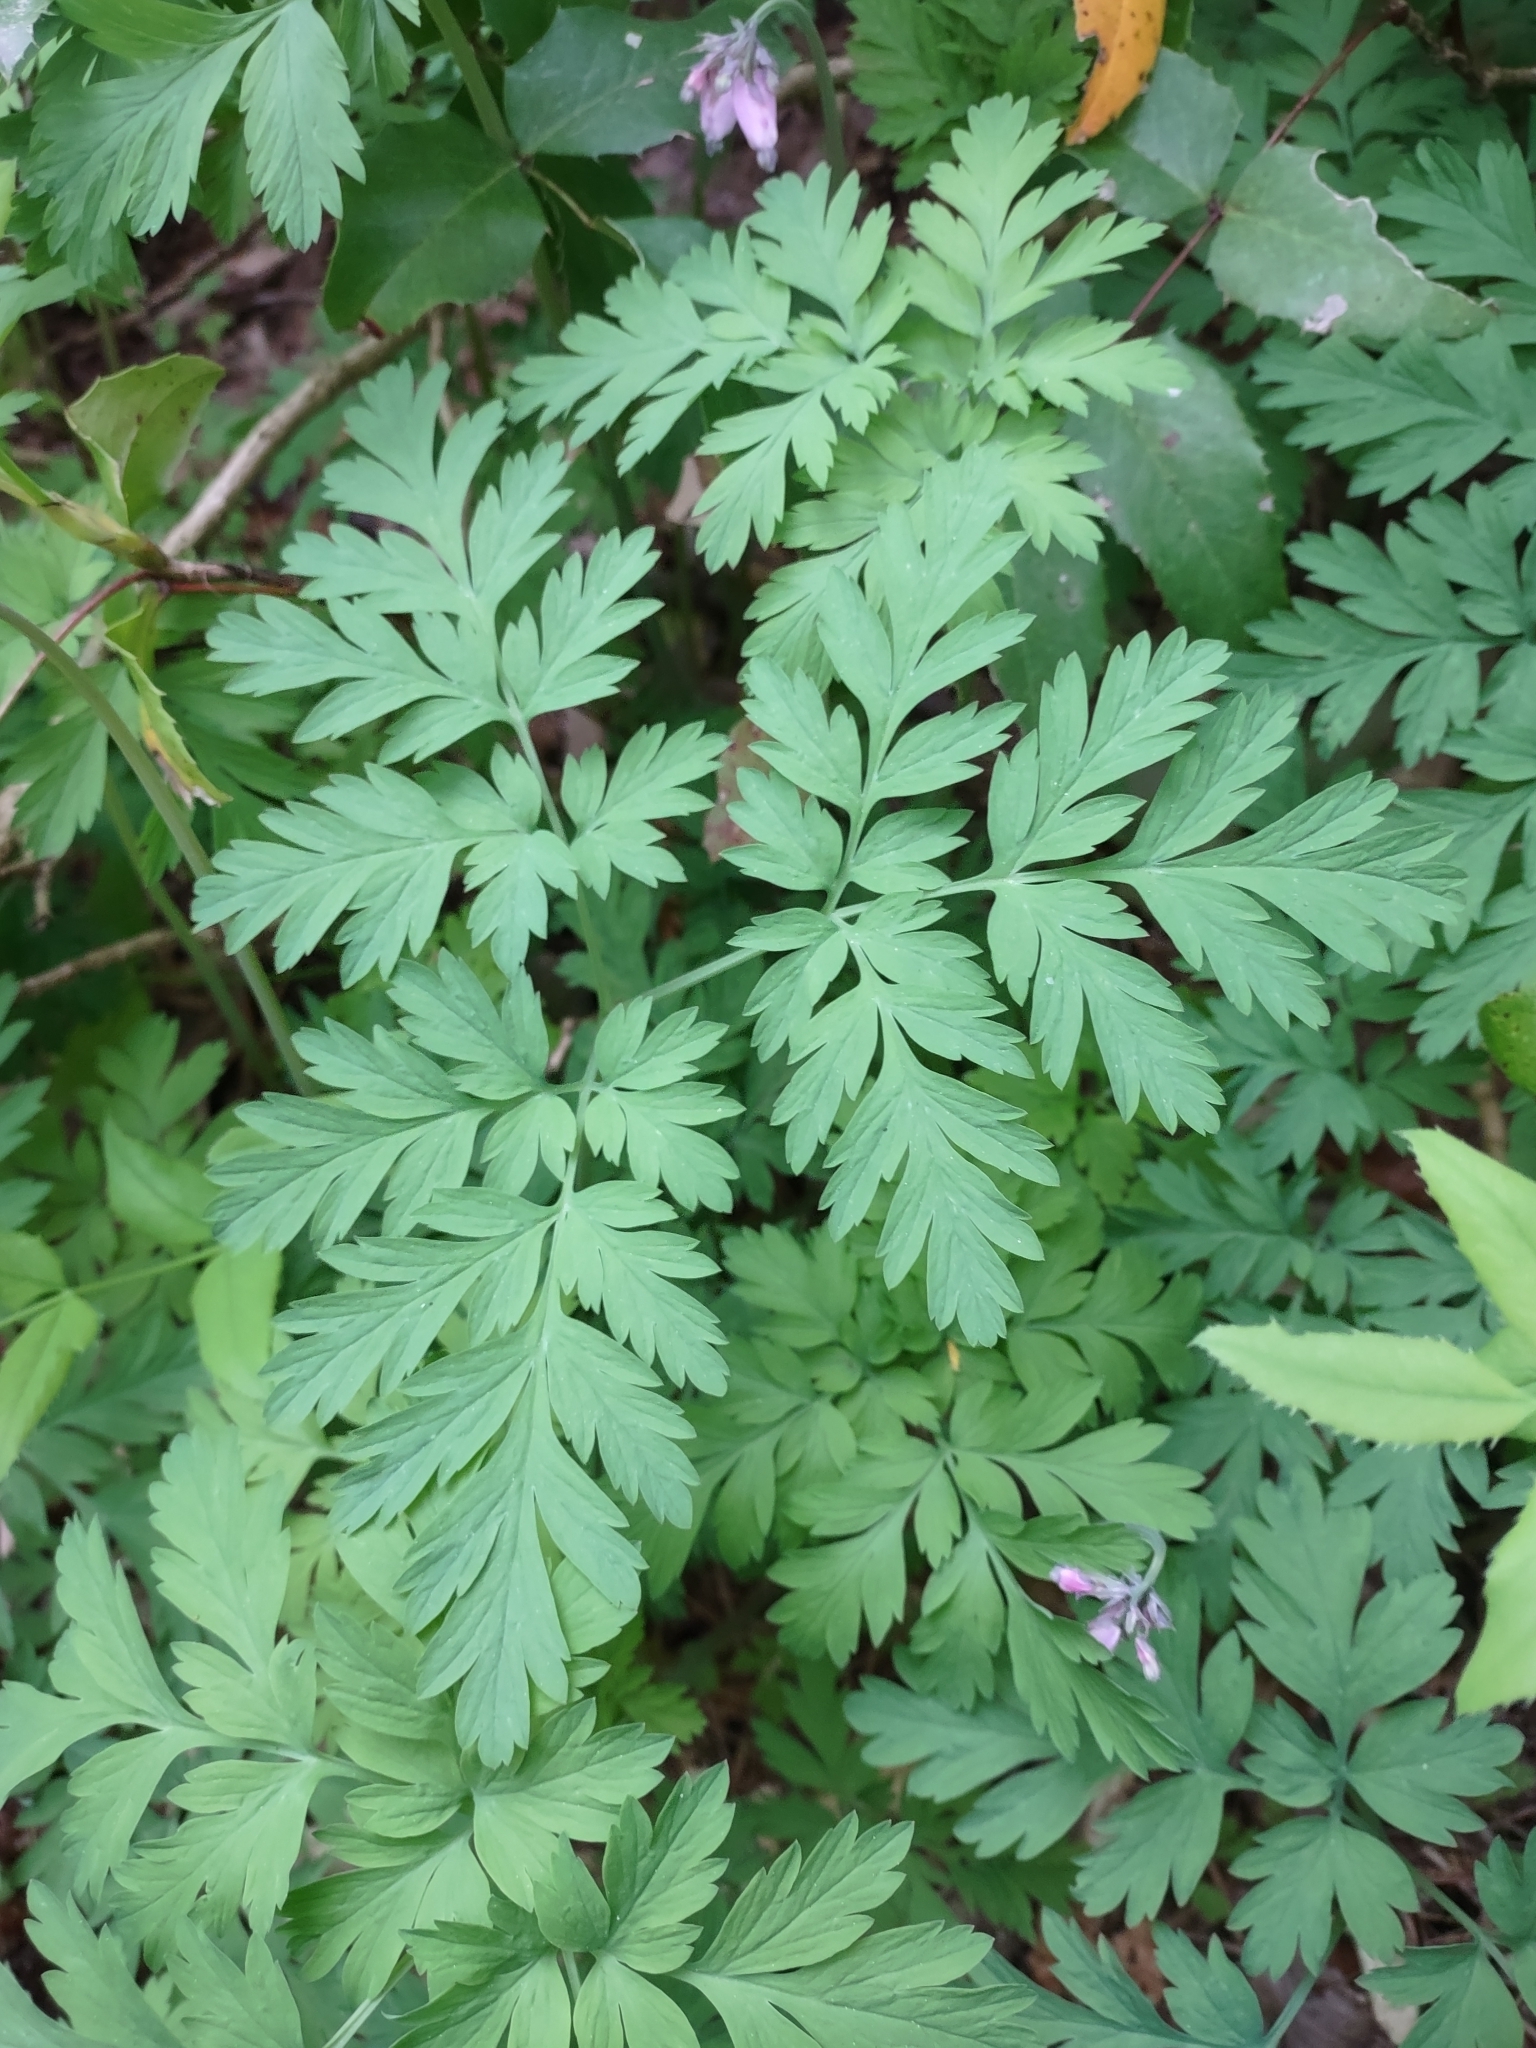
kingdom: Plantae
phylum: Tracheophyta
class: Magnoliopsida
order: Ranunculales
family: Papaveraceae
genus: Dicentra
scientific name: Dicentra formosa
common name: Bleeding-heart
